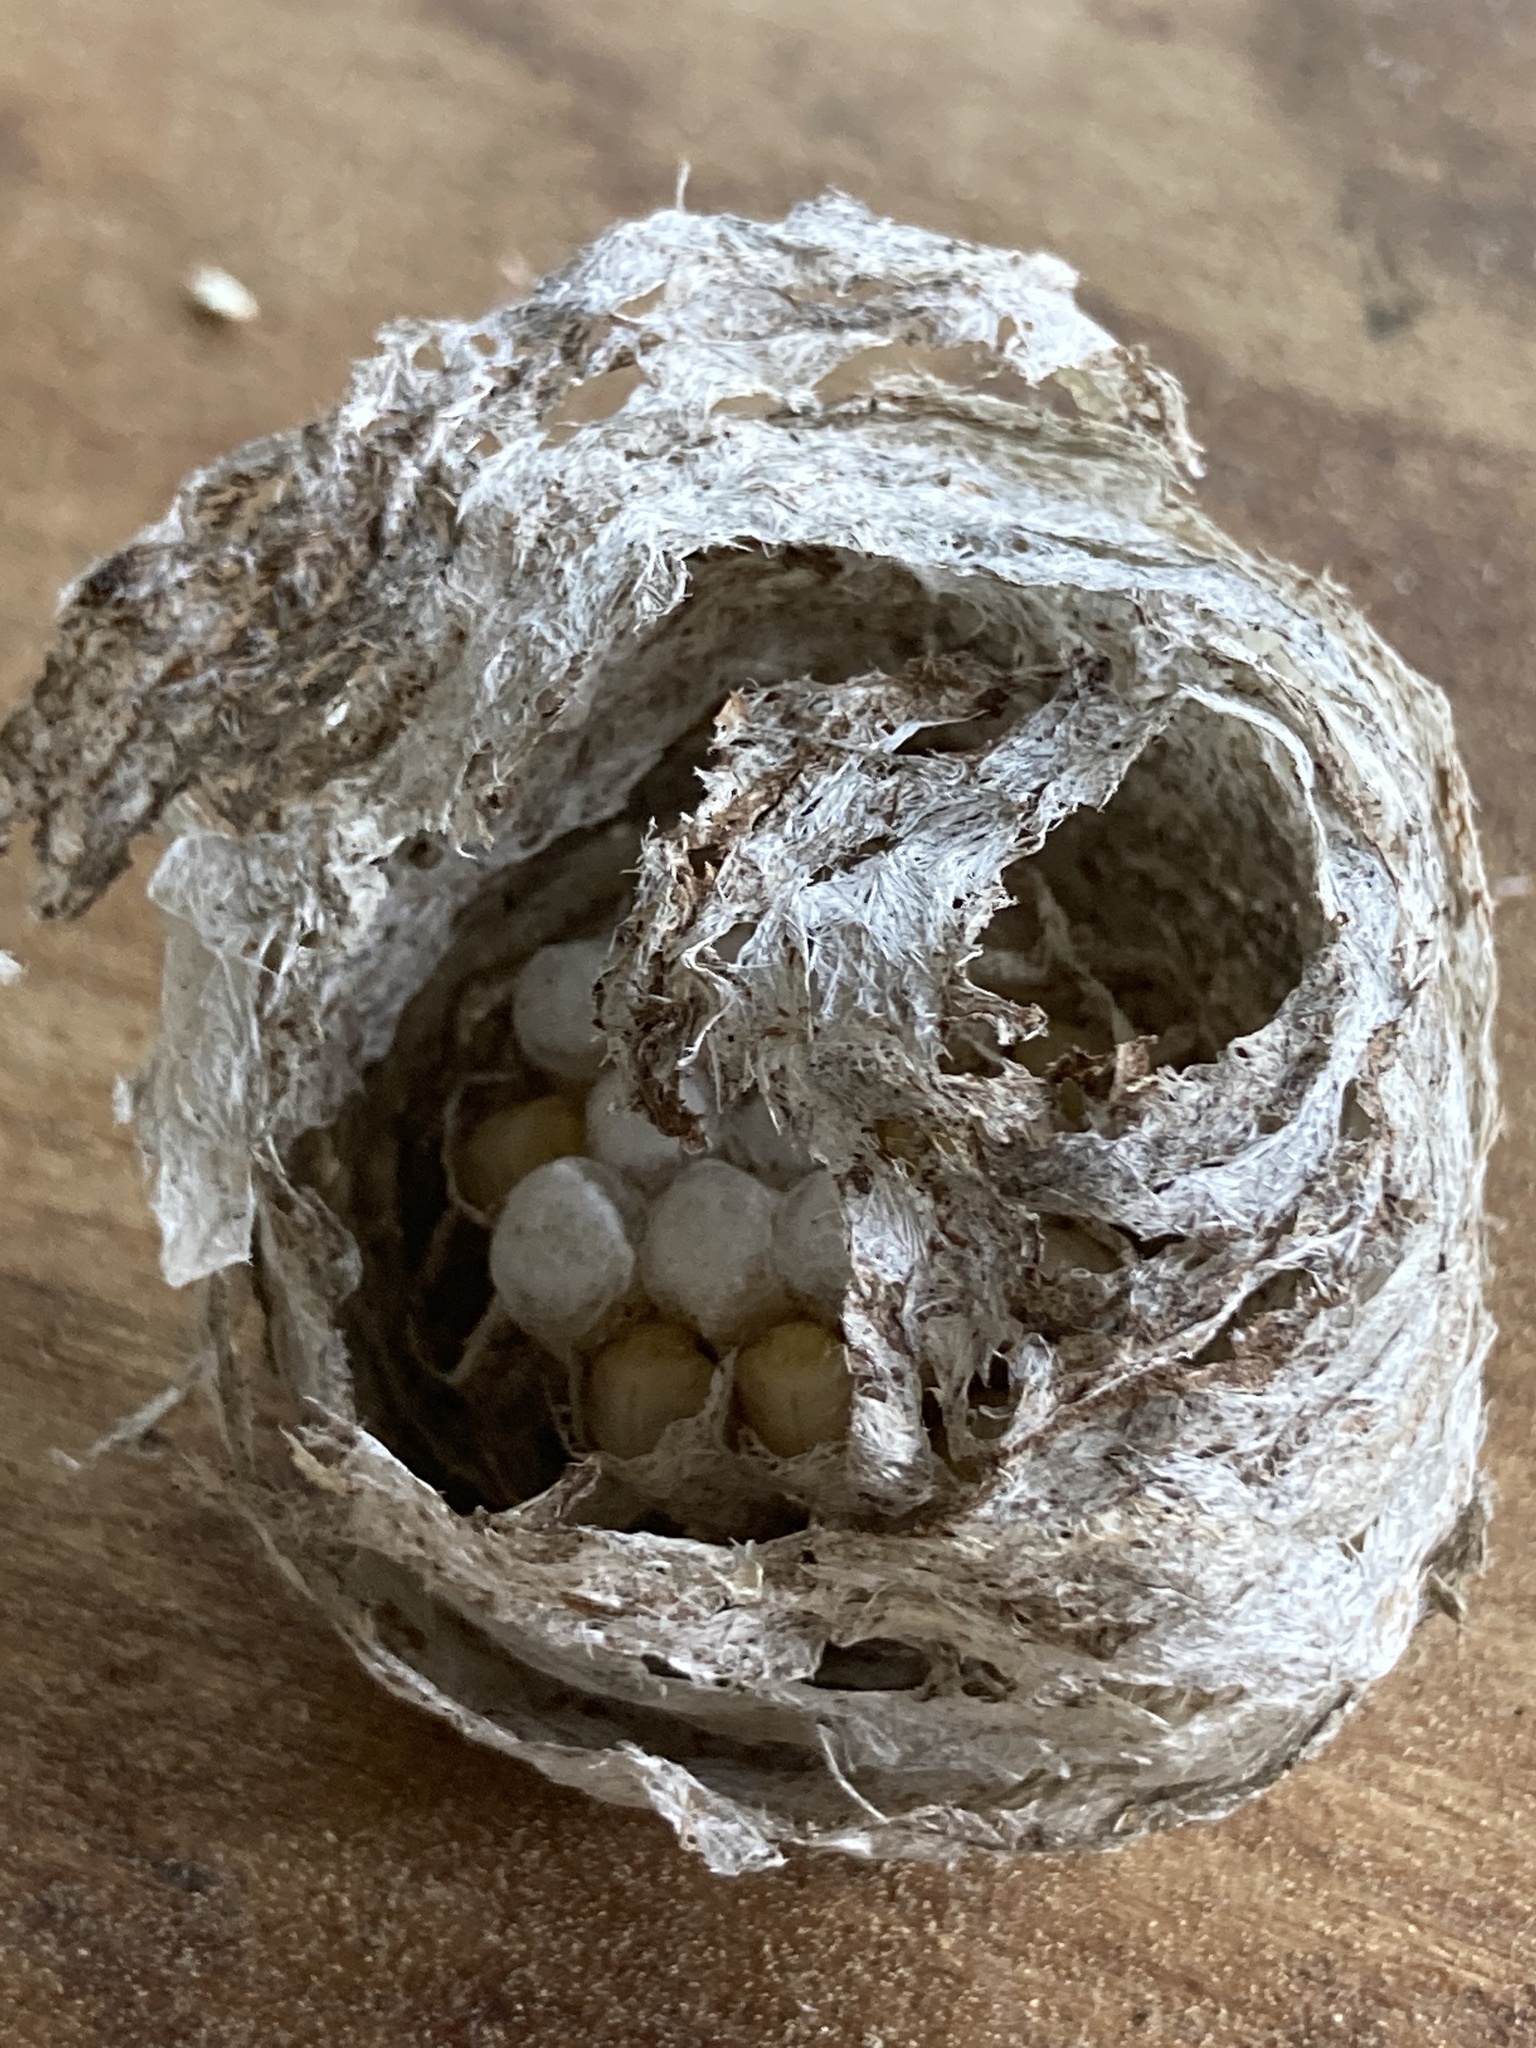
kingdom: Animalia
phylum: Arthropoda
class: Insecta
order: Hymenoptera
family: Vespidae
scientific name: Vespidae
